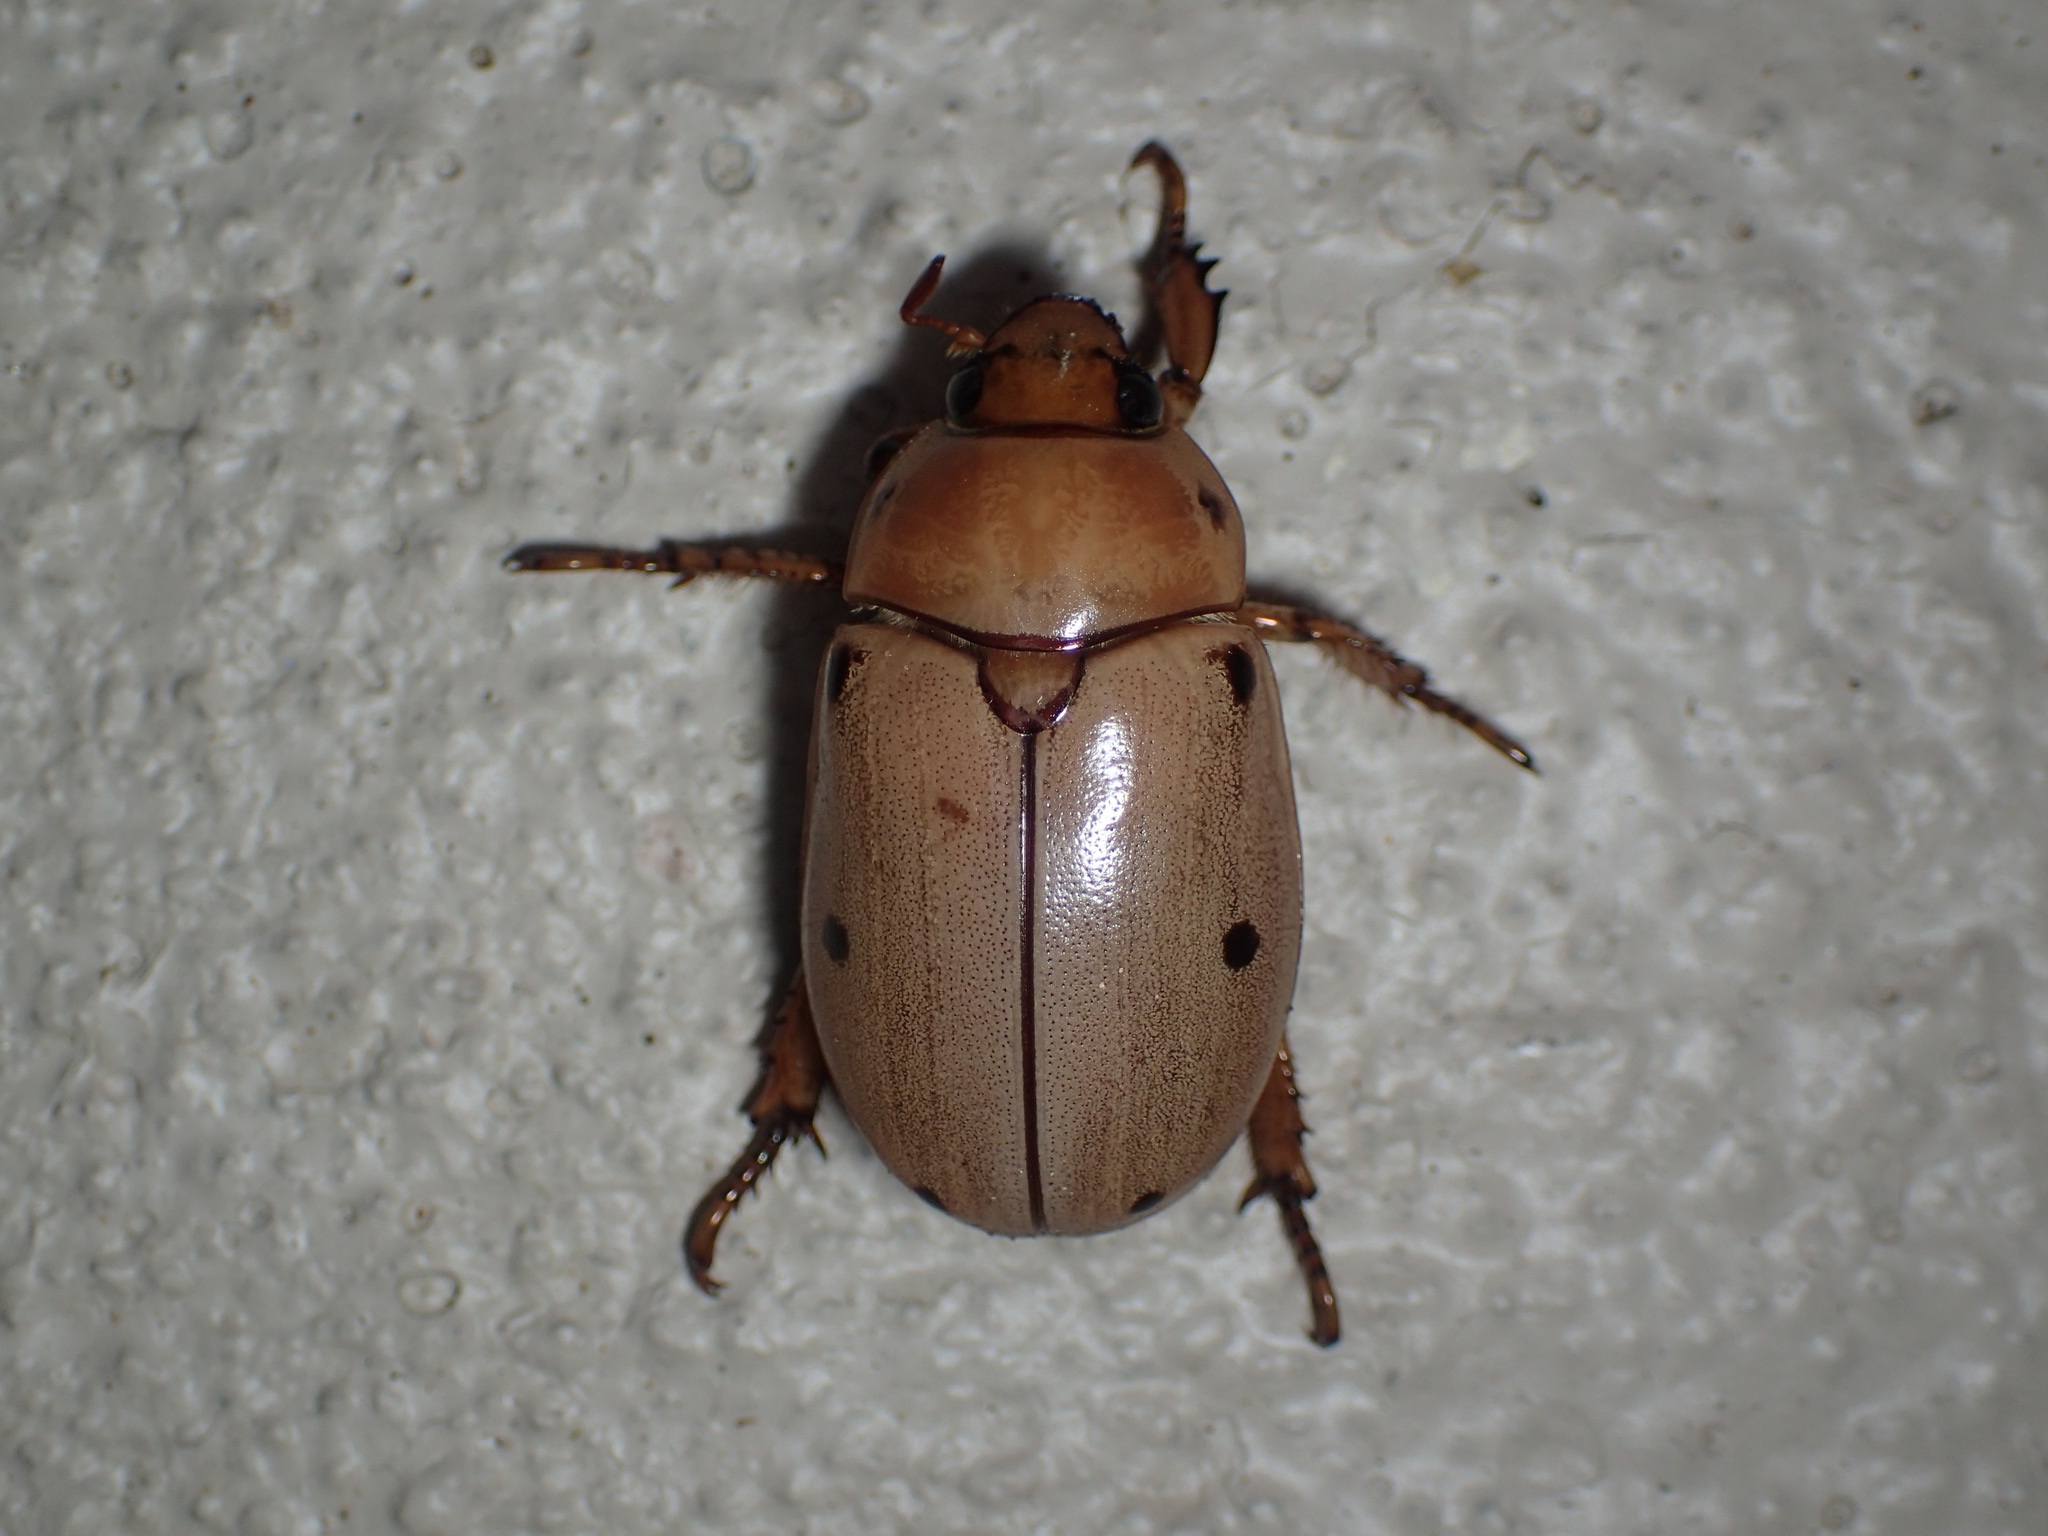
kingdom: Animalia
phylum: Arthropoda
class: Insecta
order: Coleoptera
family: Scarabaeidae
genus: Pelidnota
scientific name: Pelidnota punctata
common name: Grapevine beetle
